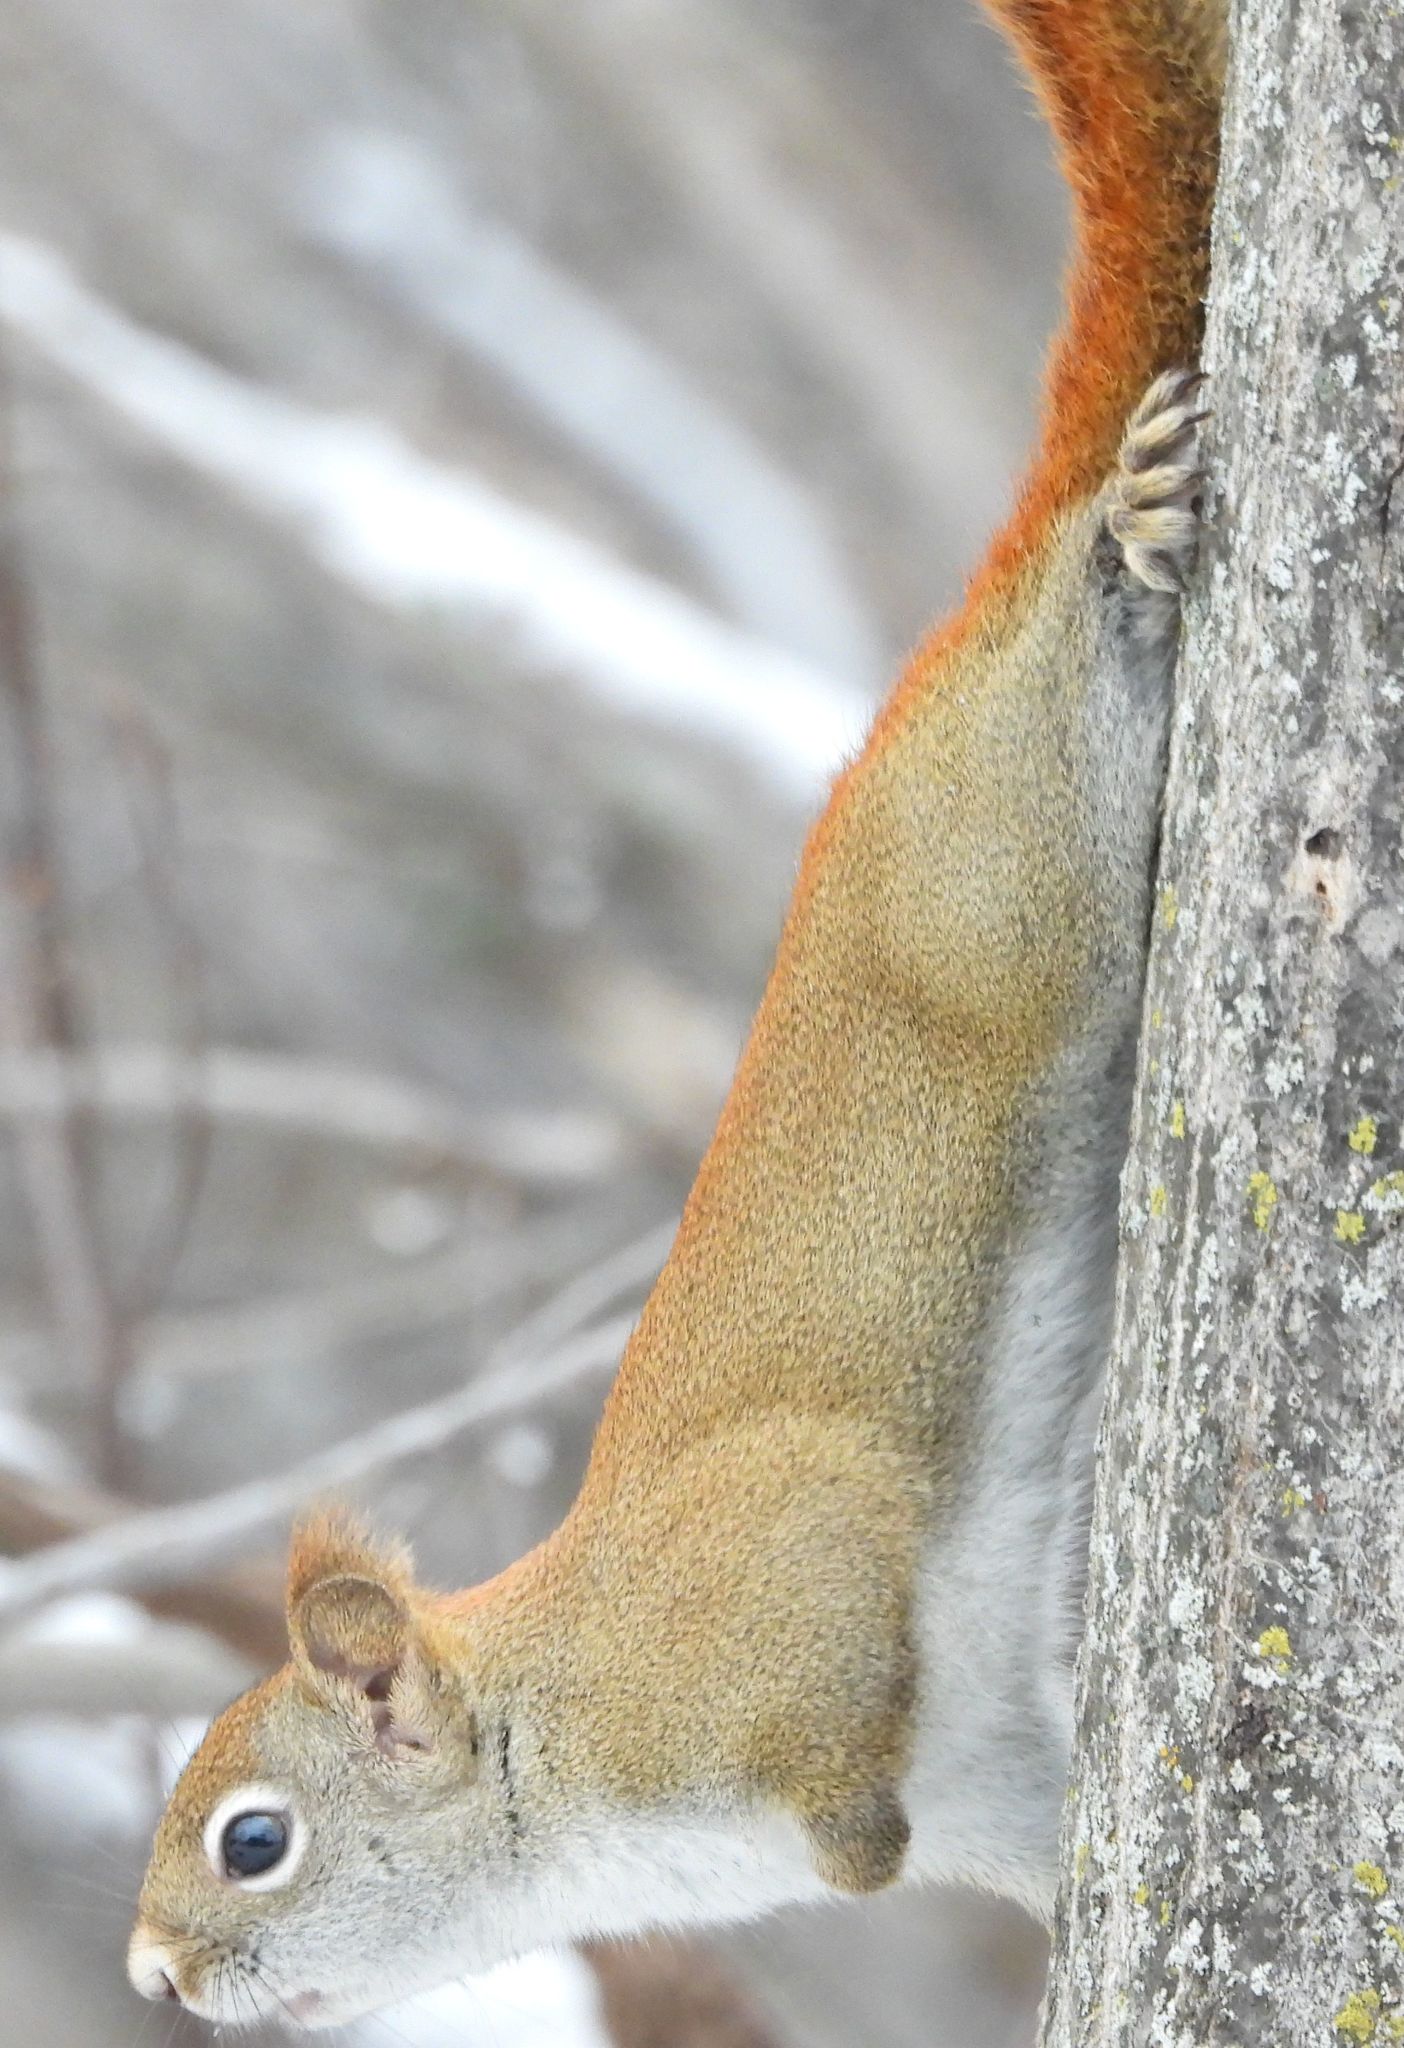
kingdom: Animalia
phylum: Chordata
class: Mammalia
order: Rodentia
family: Sciuridae
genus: Tamiasciurus
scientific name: Tamiasciurus hudsonicus
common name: Red squirrel
